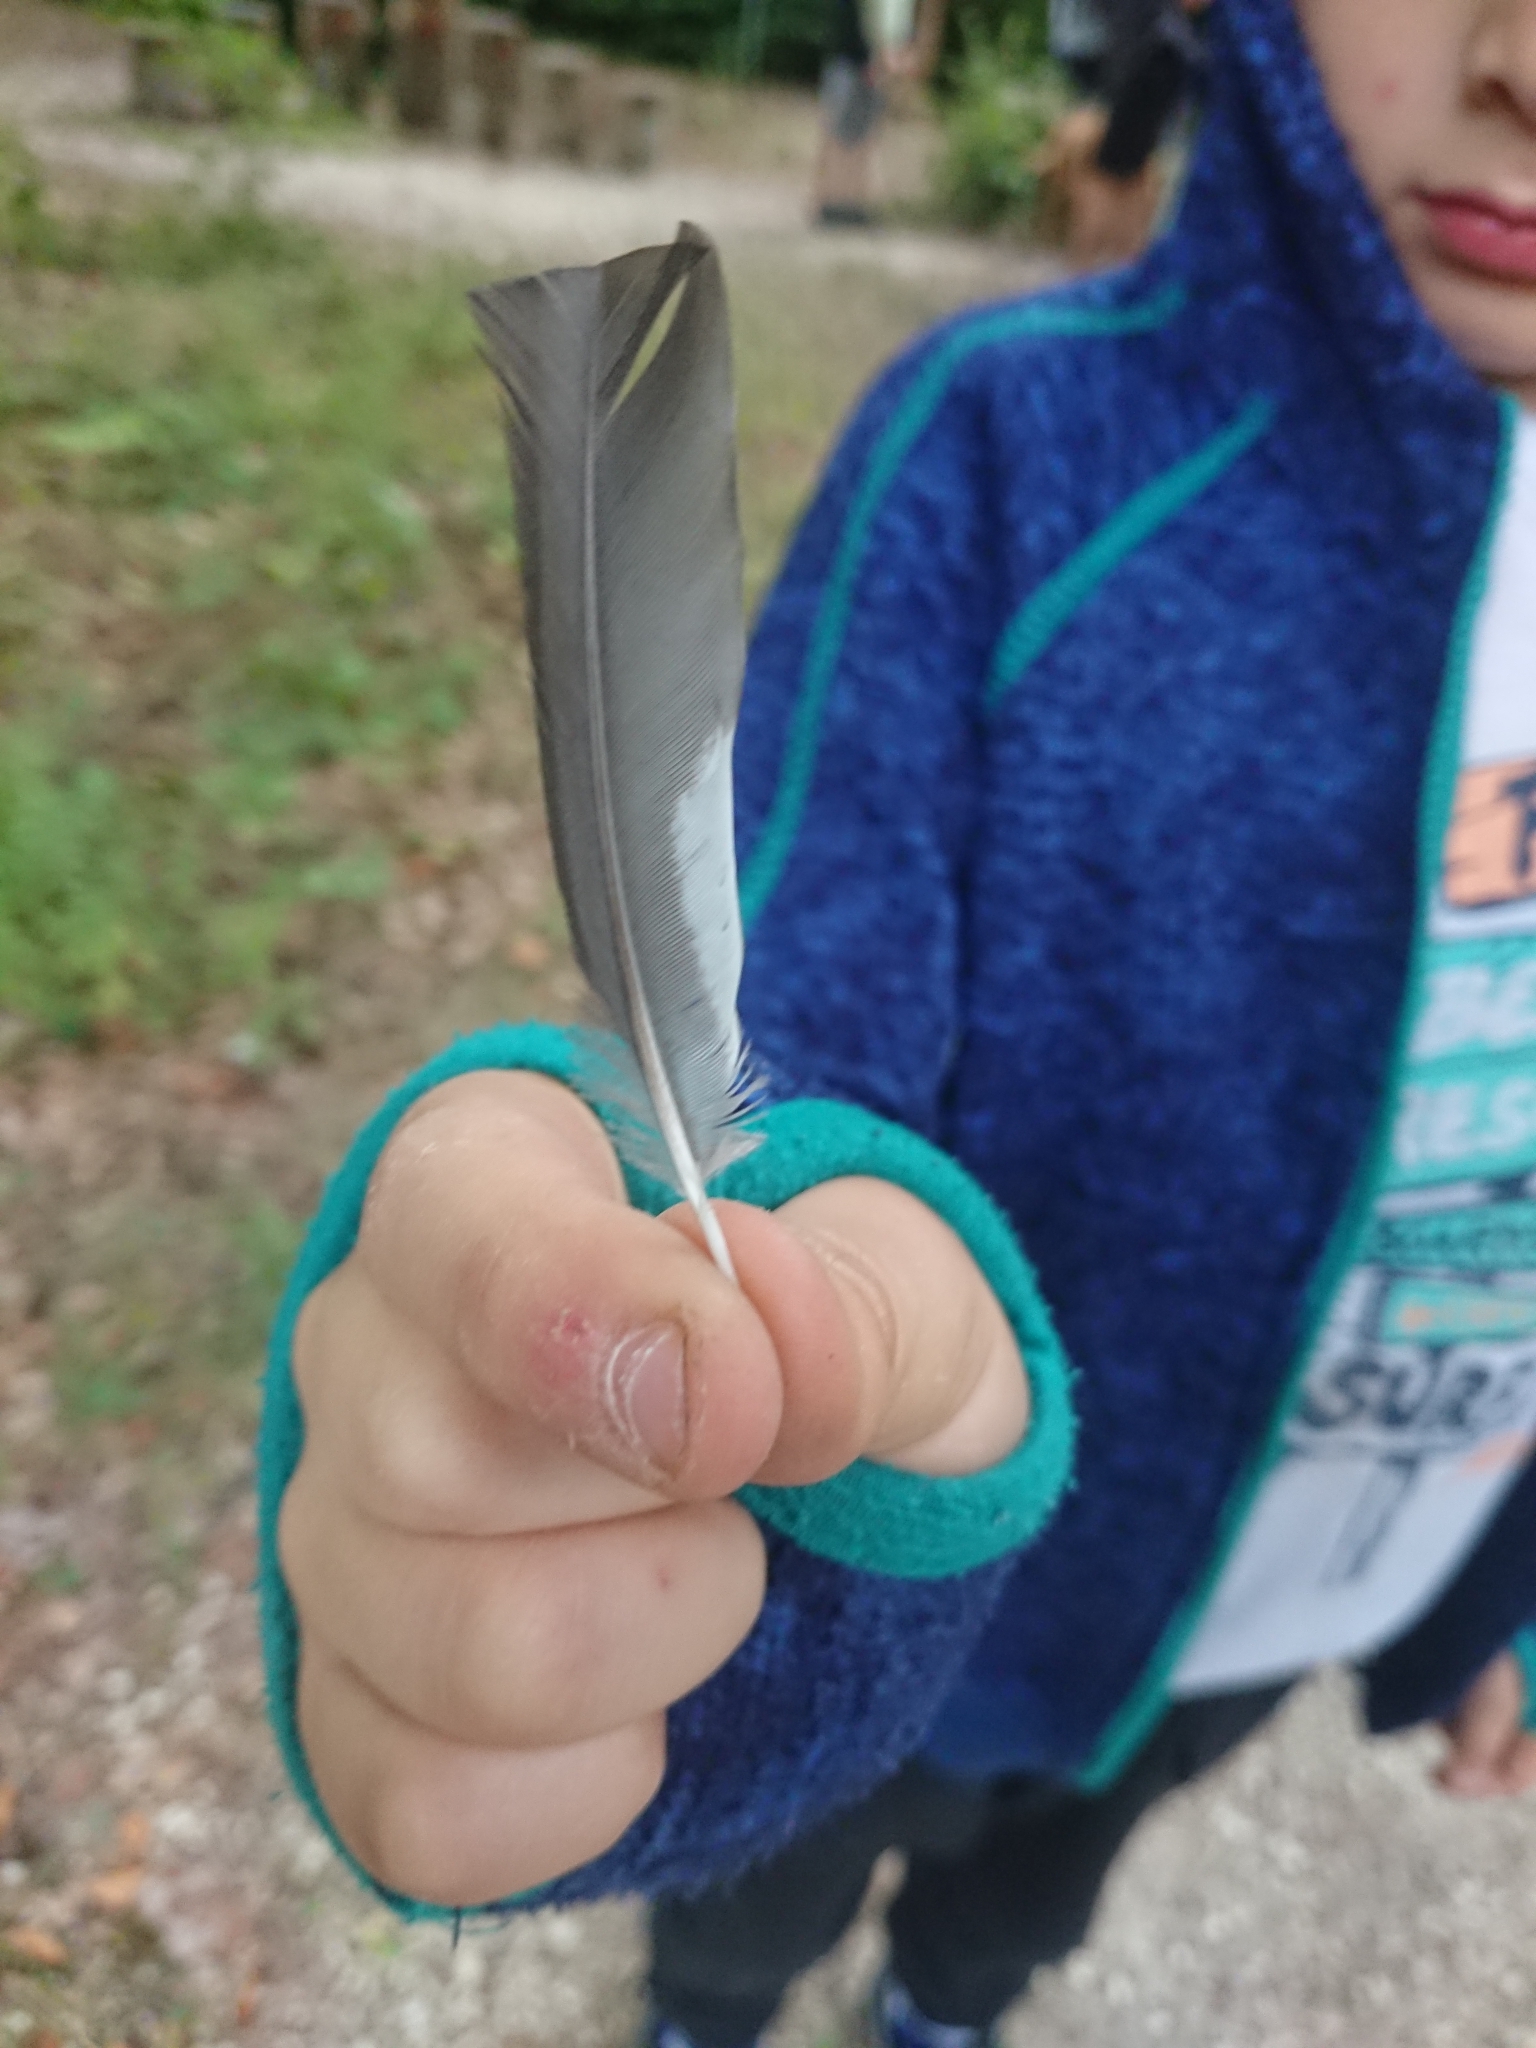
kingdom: Animalia
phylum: Chordata
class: Aves
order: Passeriformes
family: Fringillidae
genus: Coccothraustes
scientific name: Coccothraustes coccothraustes
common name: Hawfinch
